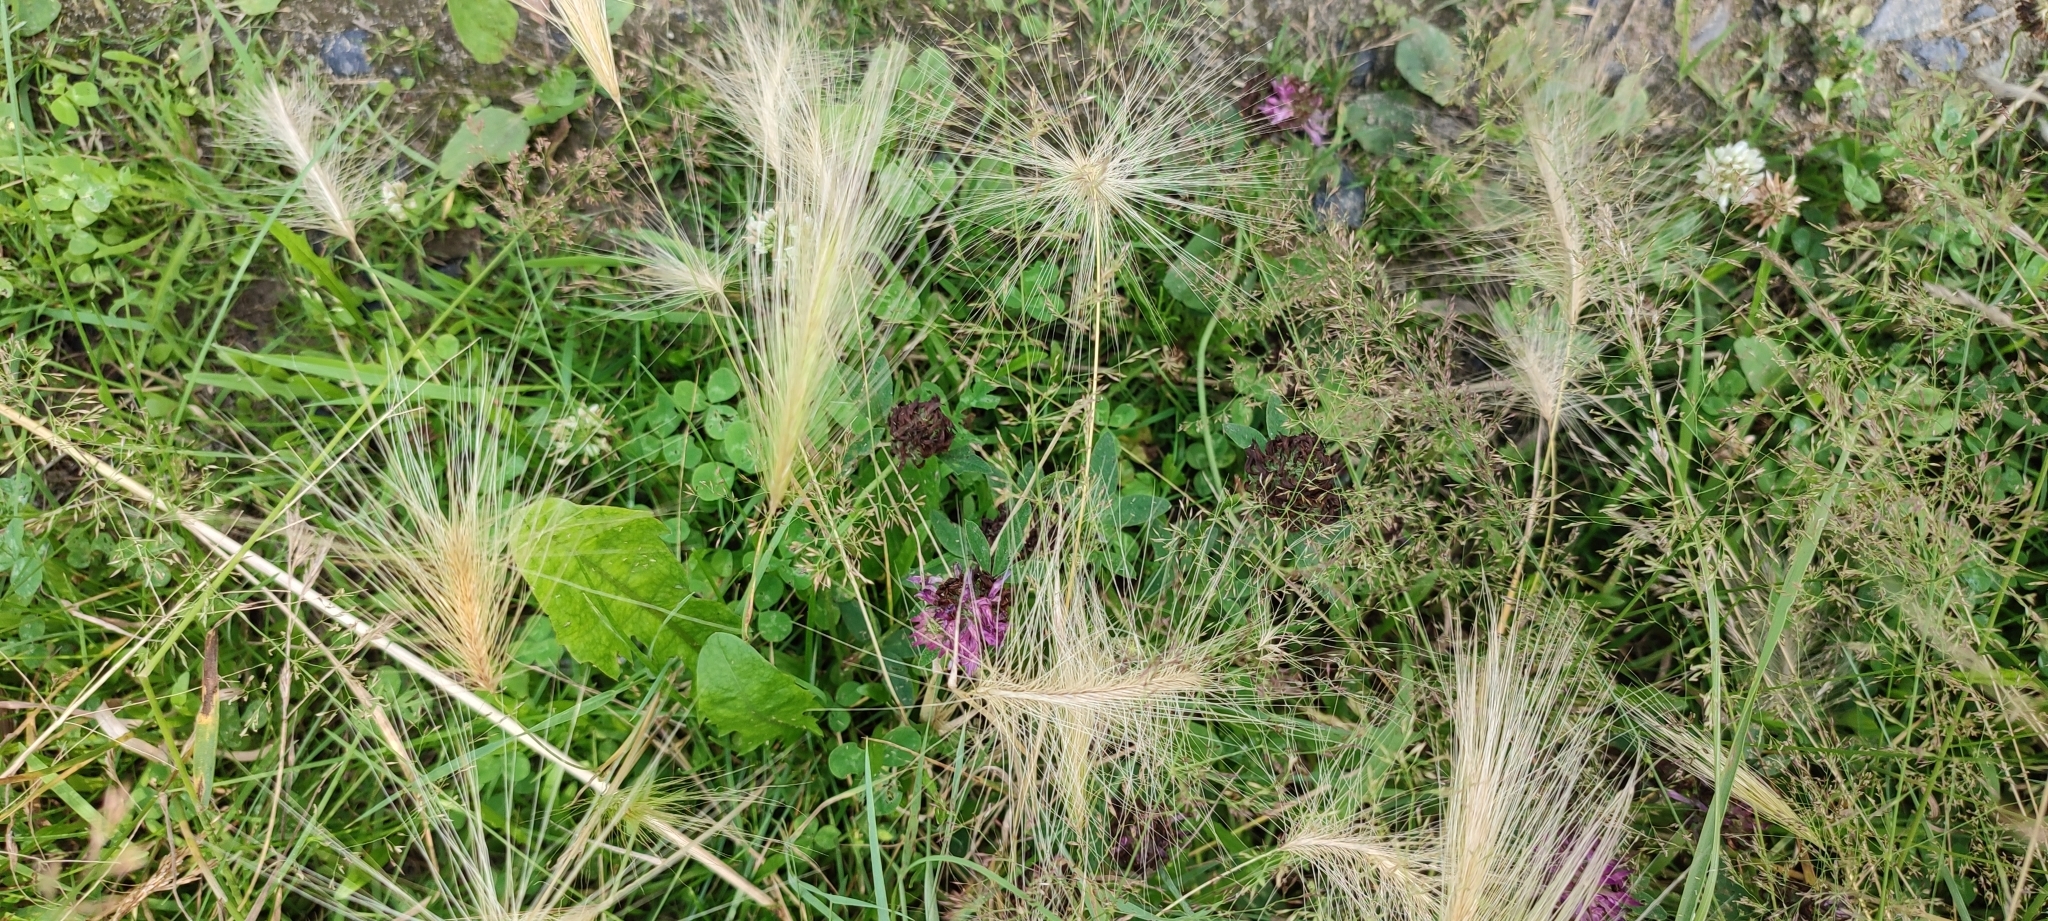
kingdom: Plantae
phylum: Tracheophyta
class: Liliopsida
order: Poales
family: Poaceae
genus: Hordeum
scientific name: Hordeum jubatum
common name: Foxtail barley
